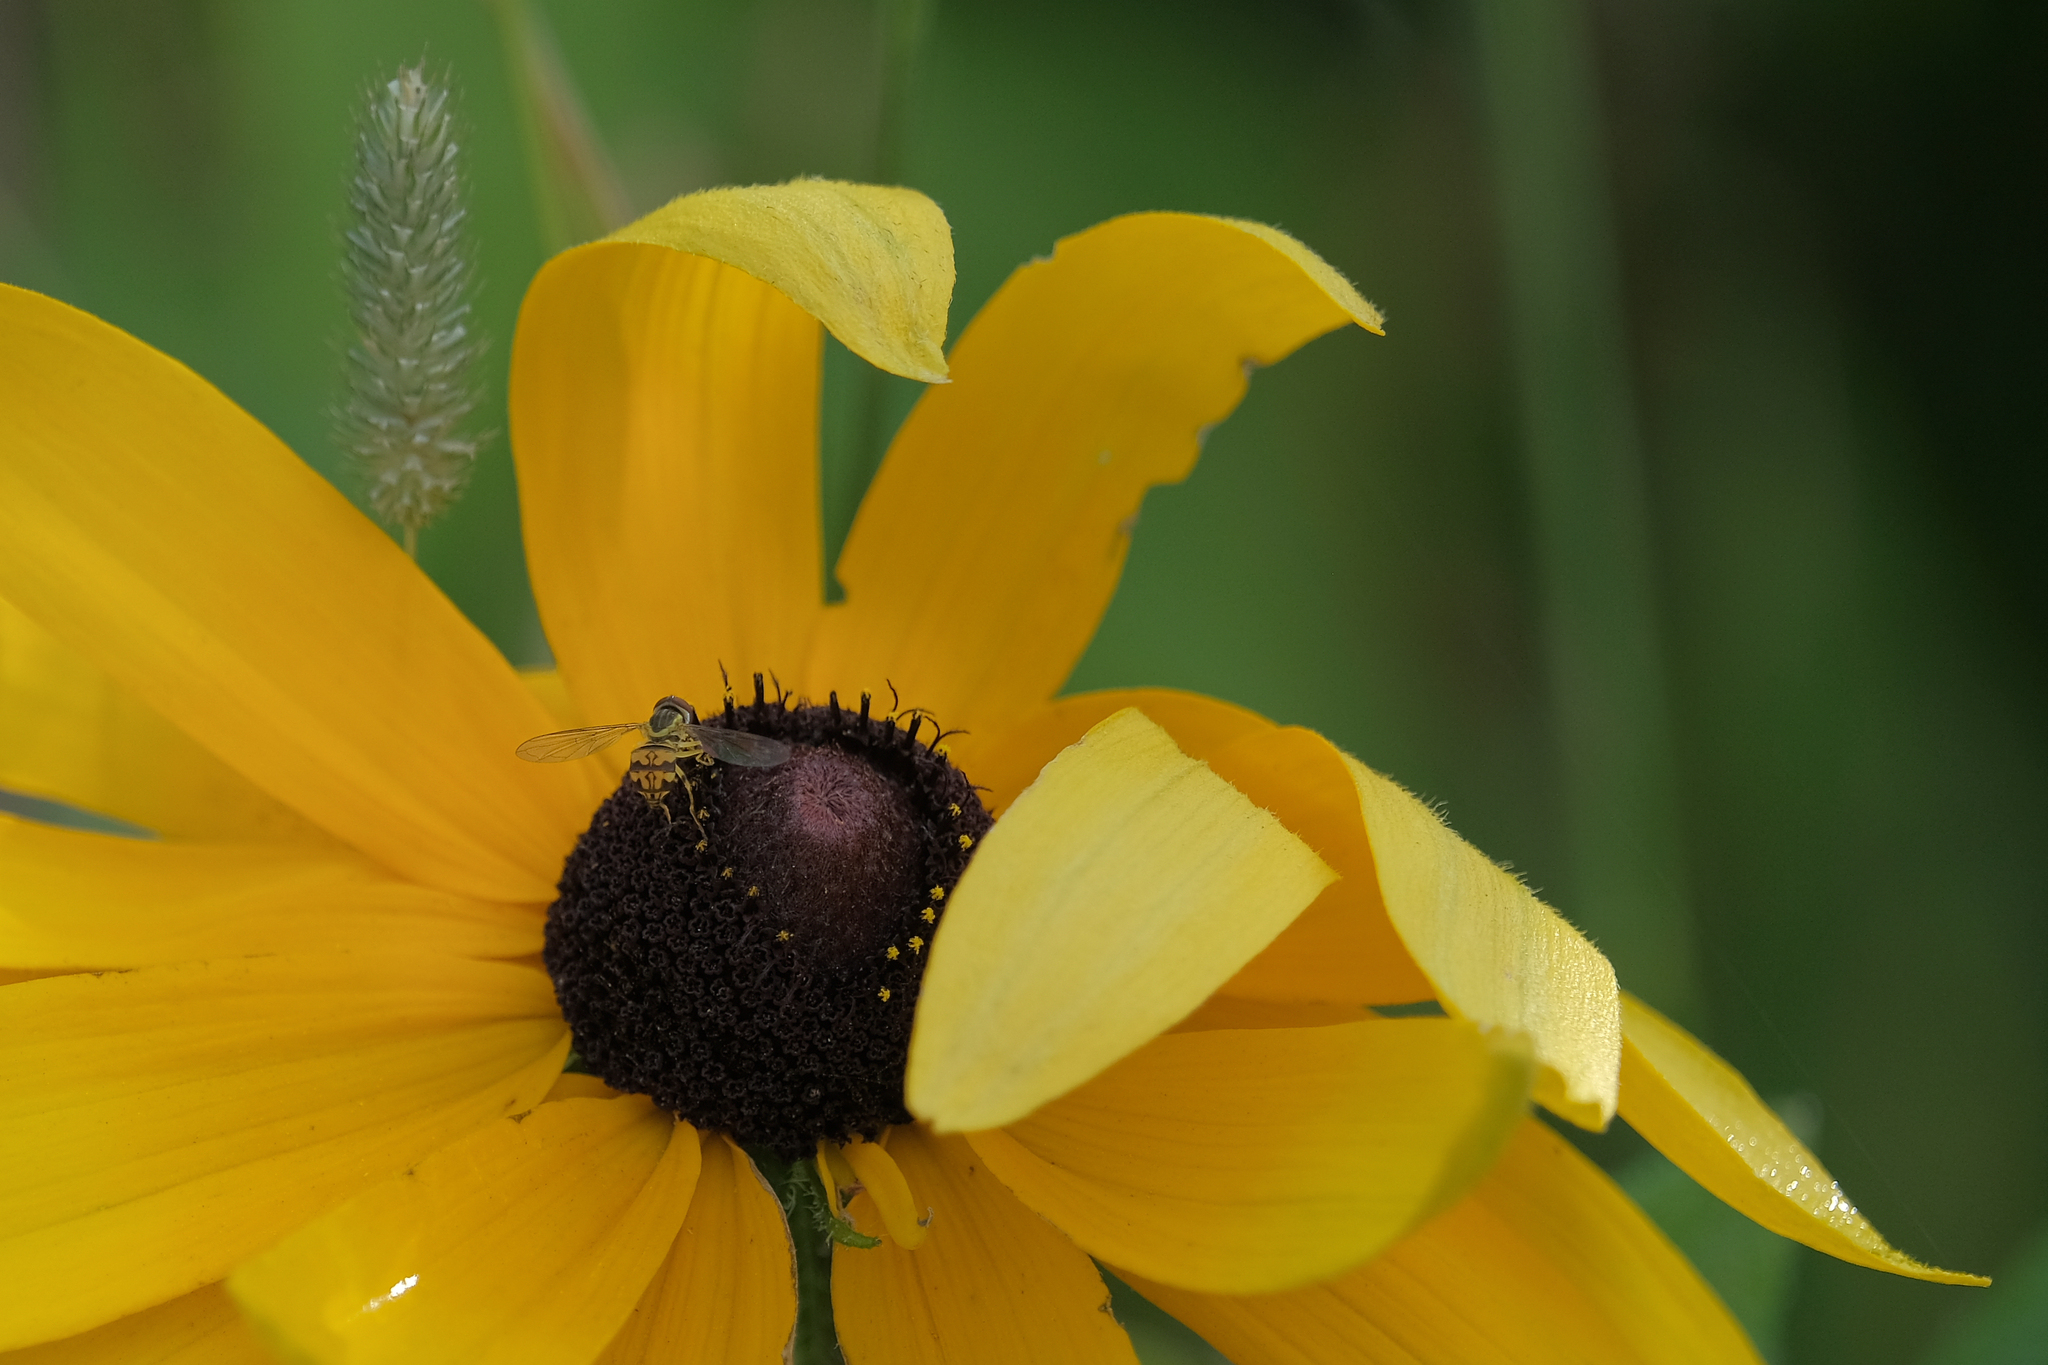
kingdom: Animalia
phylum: Arthropoda
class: Insecta
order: Diptera
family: Syrphidae
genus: Toxomerus
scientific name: Toxomerus geminatus
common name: Eastern calligrapher
